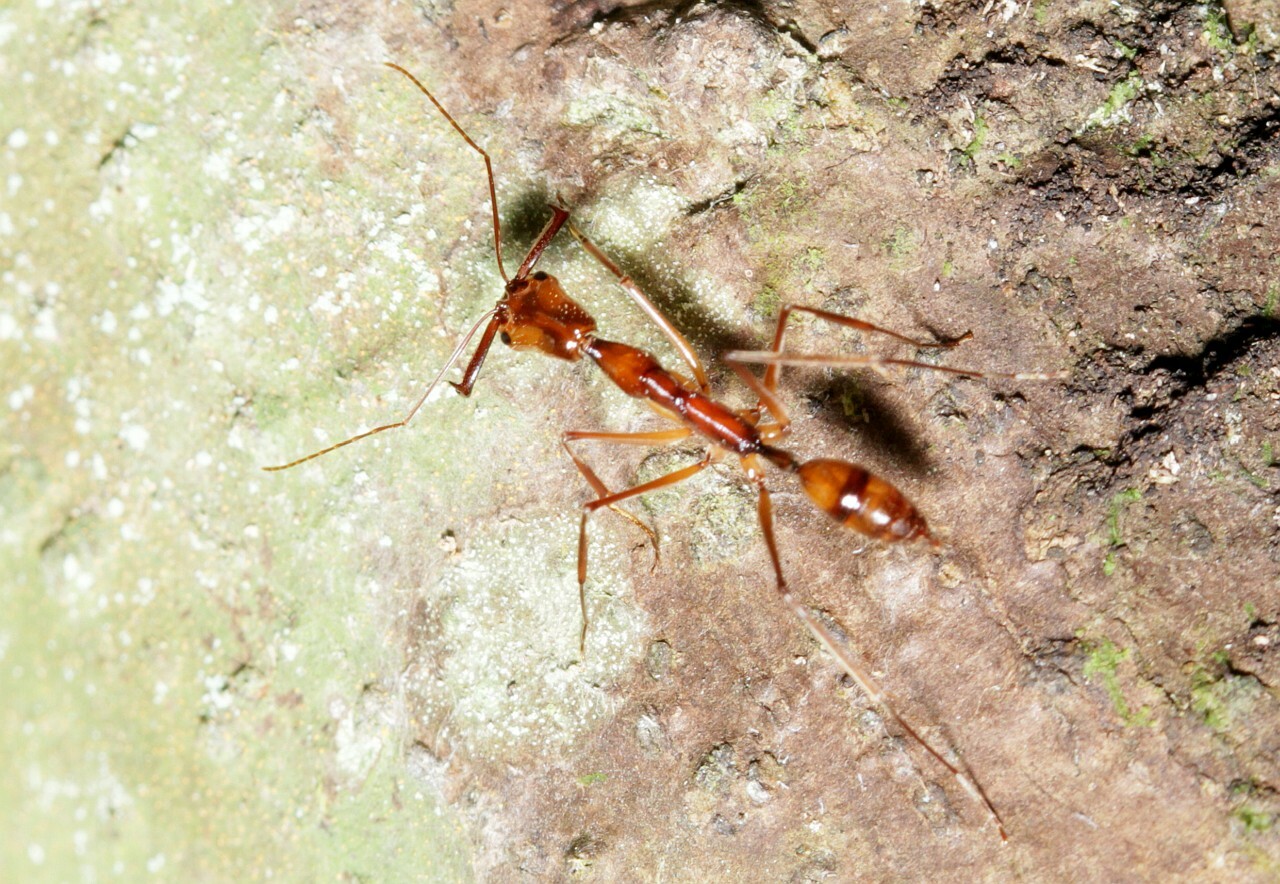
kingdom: Animalia
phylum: Arthropoda
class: Insecta
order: Hymenoptera
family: Formicidae
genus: Odontomachus
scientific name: Odontomachus hastatus
